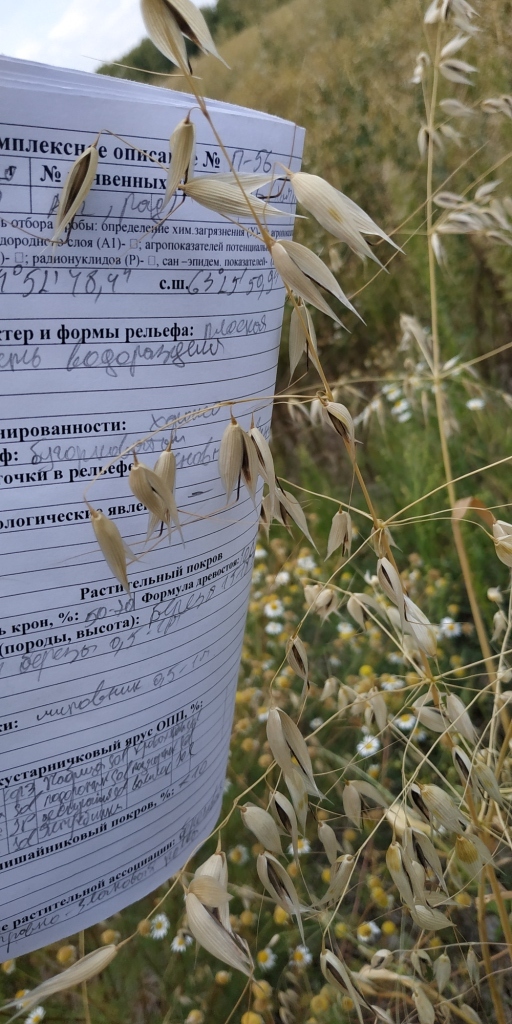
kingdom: Plantae
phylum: Tracheophyta
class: Liliopsida
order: Poales
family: Poaceae
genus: Avena
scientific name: Avena sativa
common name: Oat
